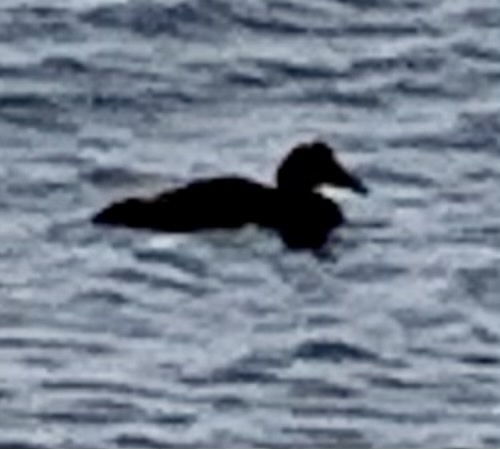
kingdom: Animalia
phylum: Chordata
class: Aves
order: Anseriformes
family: Anatidae
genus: Somateria
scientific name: Somateria mollissima
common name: Common eider
